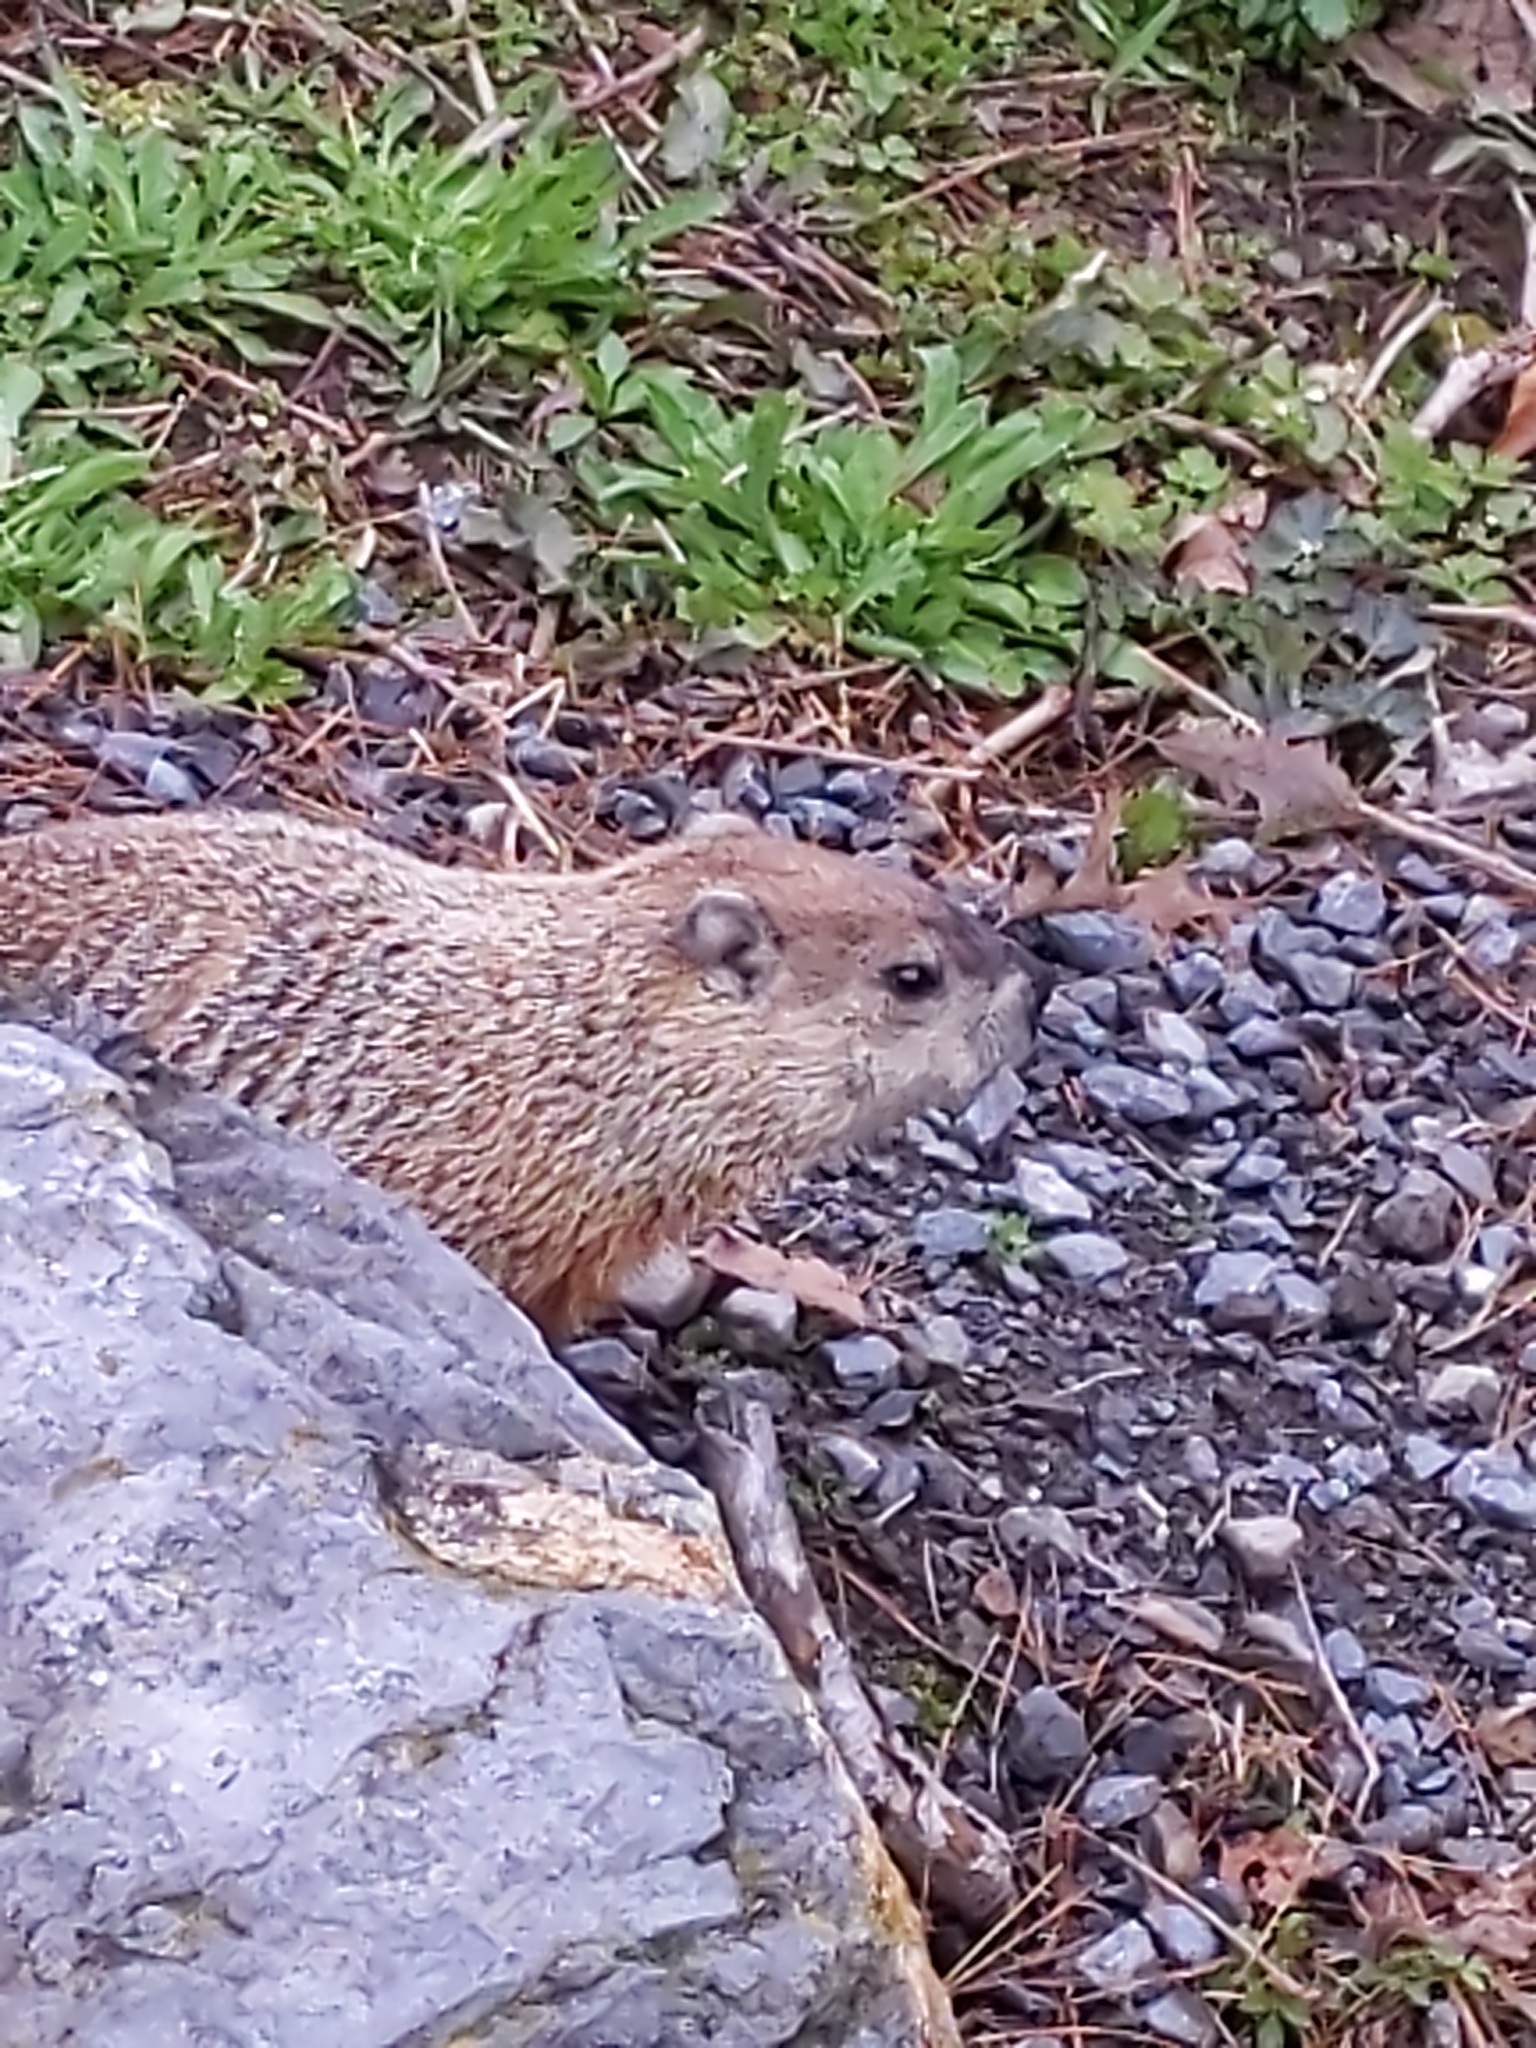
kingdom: Animalia
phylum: Chordata
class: Mammalia
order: Rodentia
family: Sciuridae
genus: Marmota
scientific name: Marmota monax
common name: Groundhog
